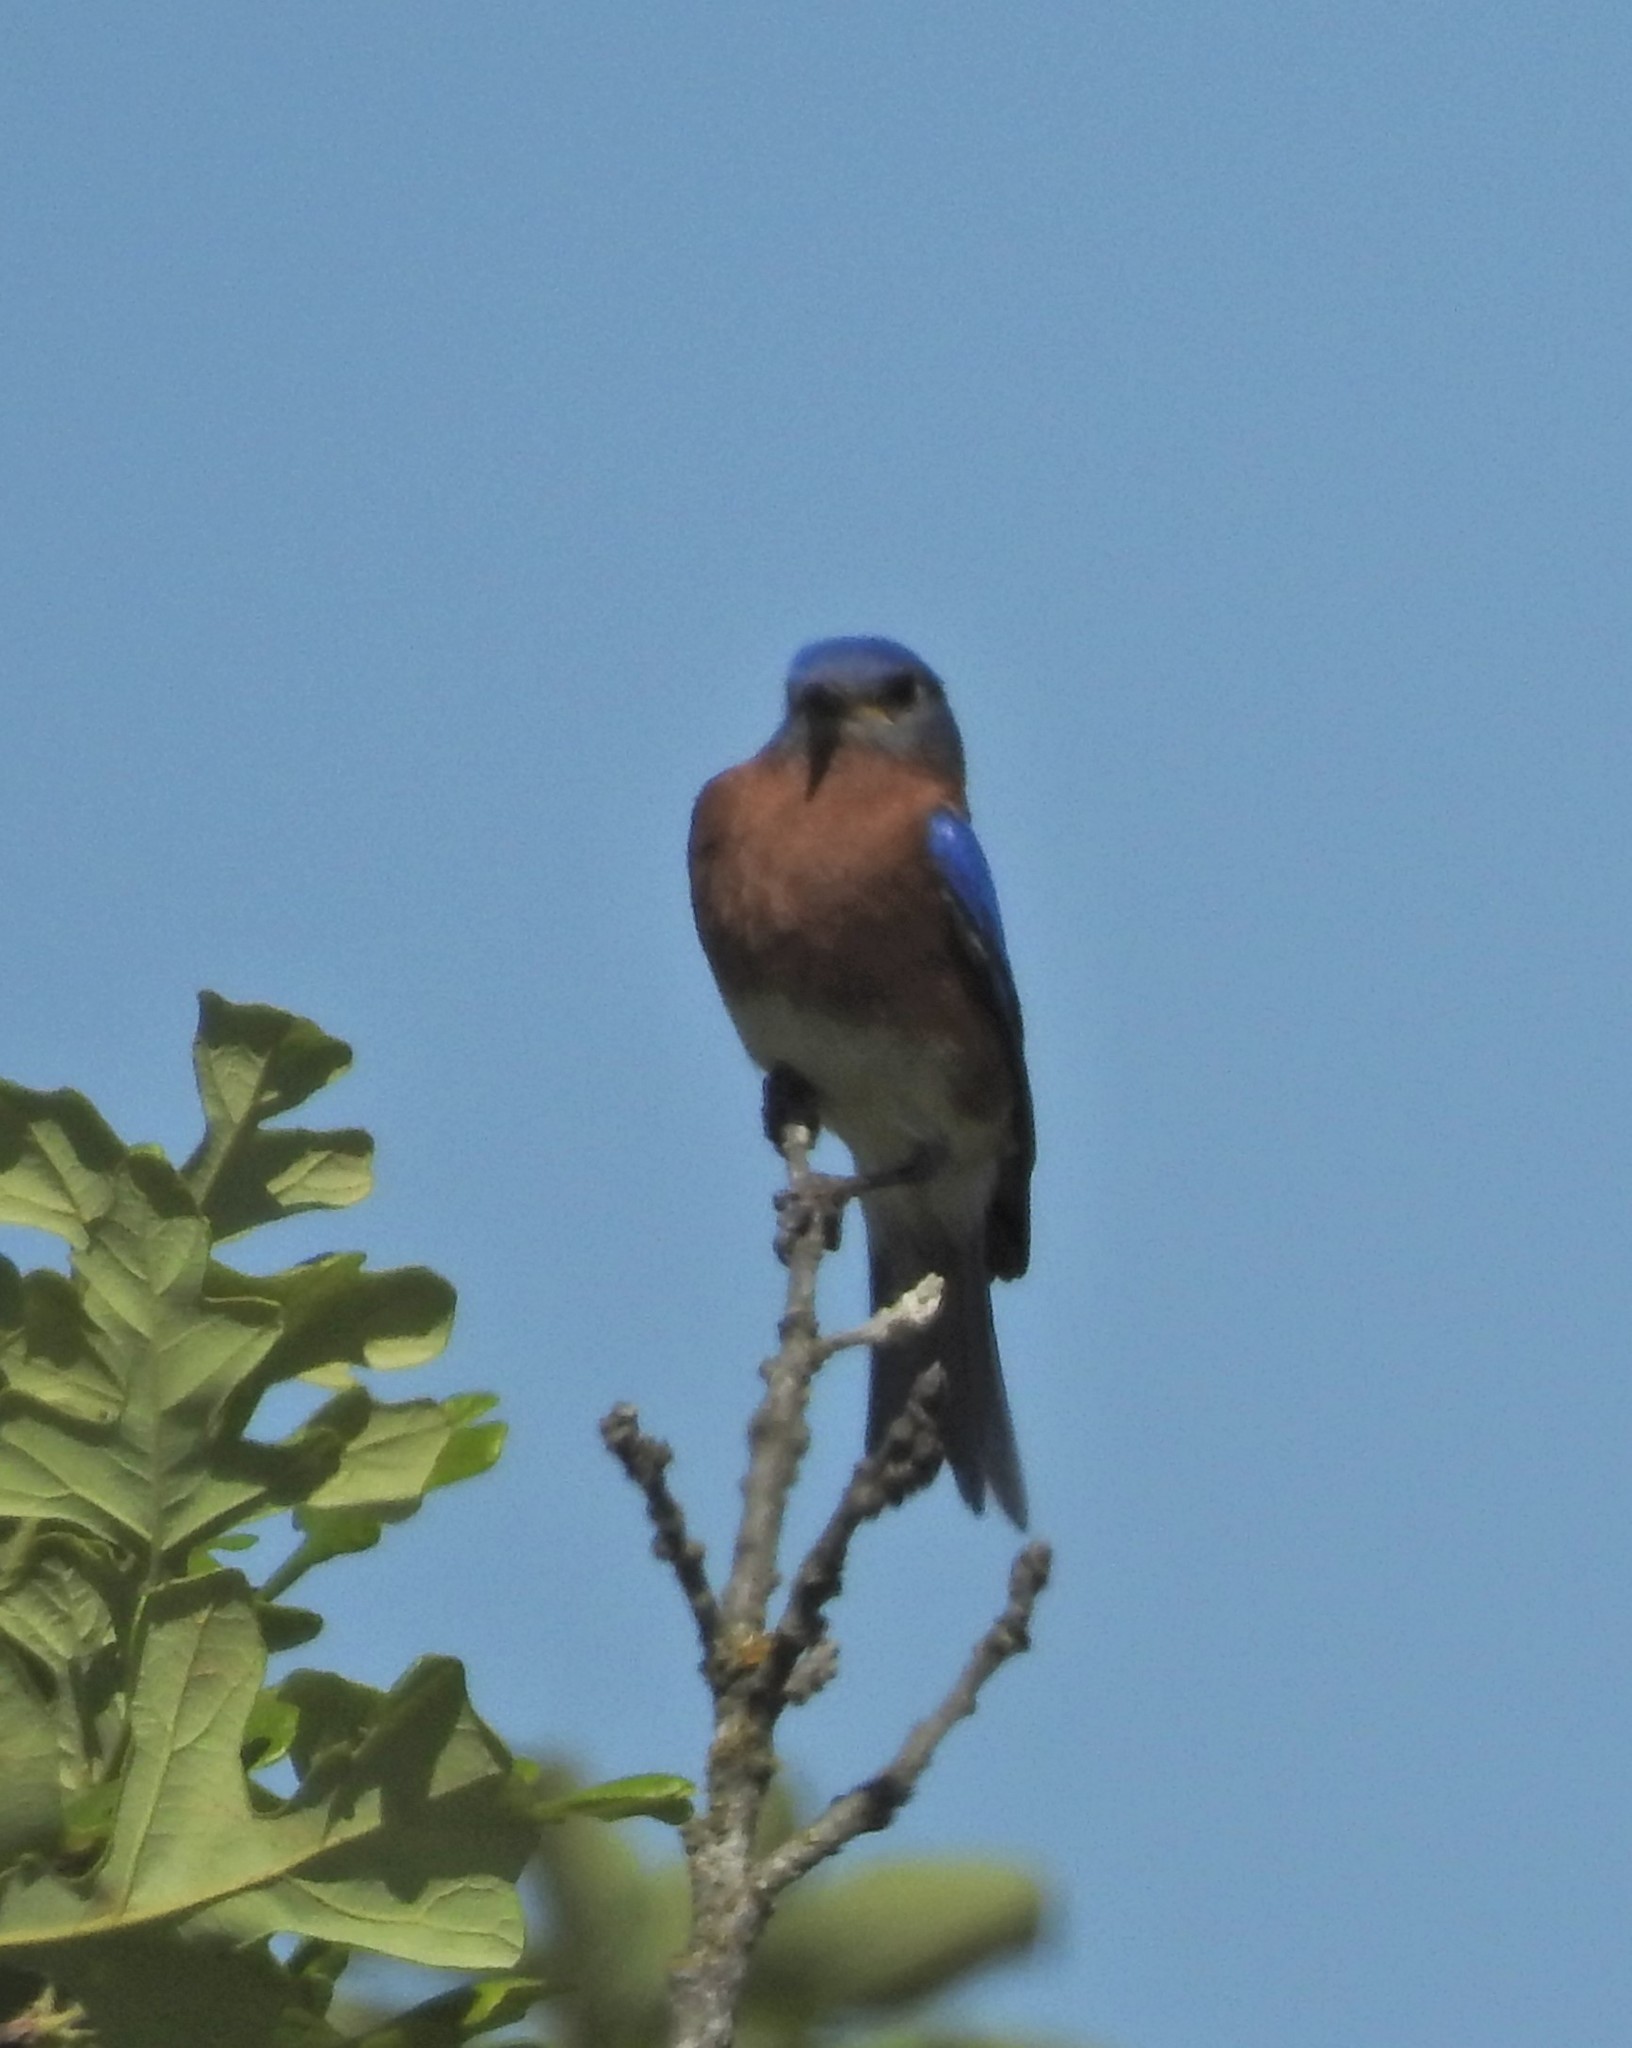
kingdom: Animalia
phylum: Chordata
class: Aves
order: Passeriformes
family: Turdidae
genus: Sialia
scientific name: Sialia sialis
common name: Eastern bluebird
